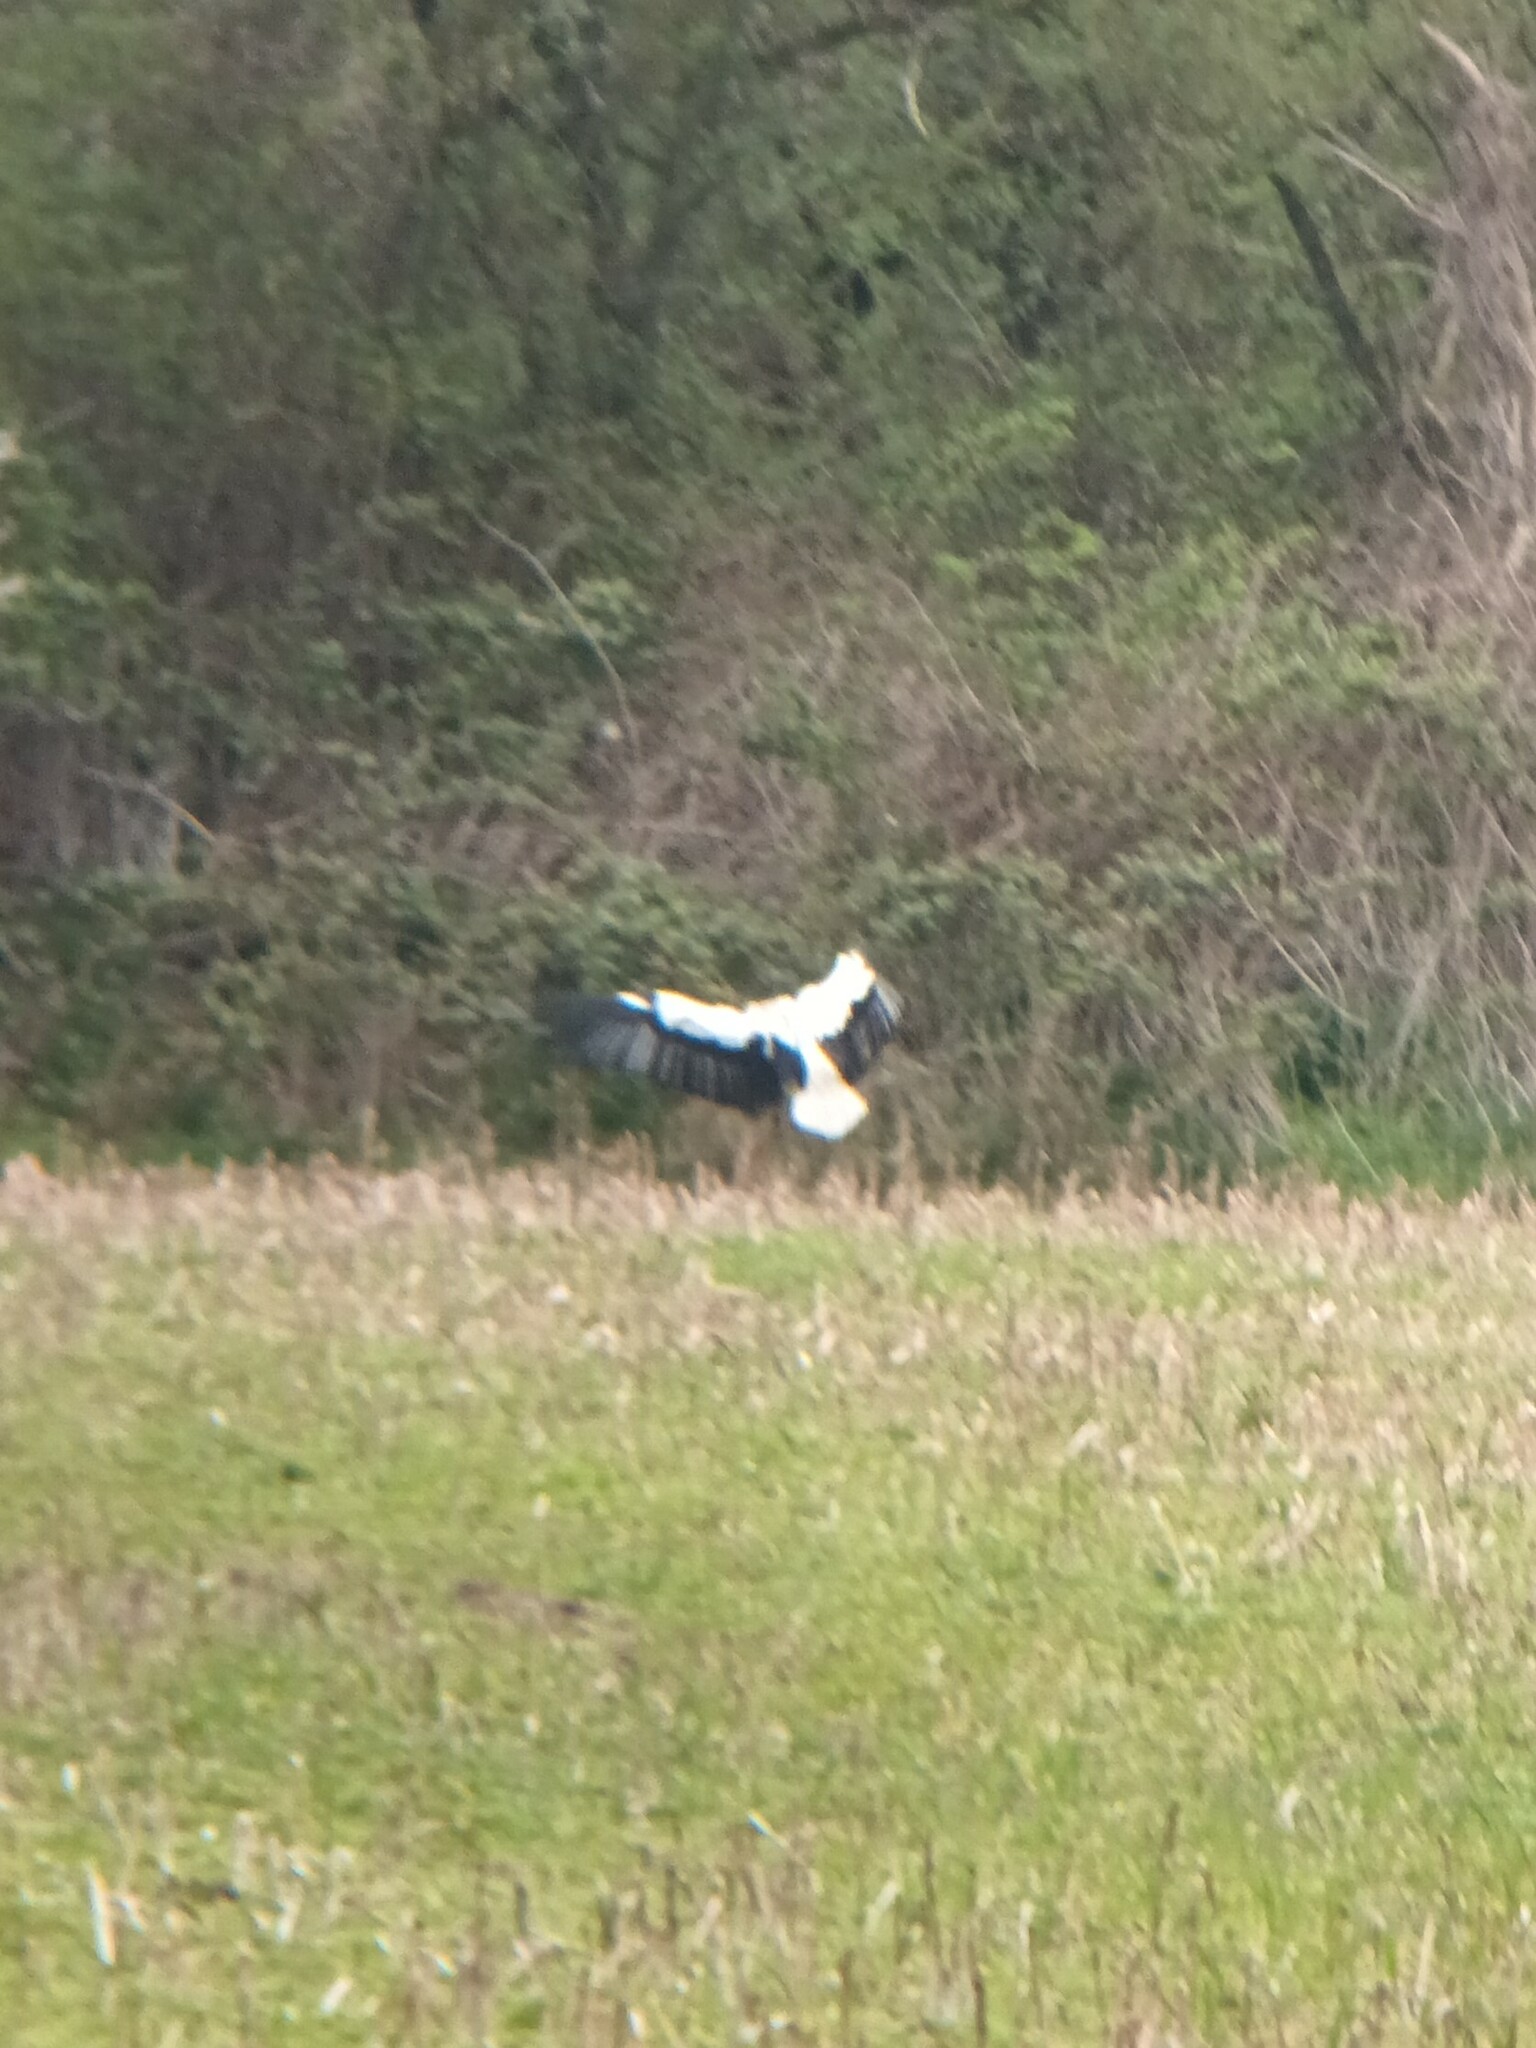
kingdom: Animalia
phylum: Chordata
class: Aves
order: Ciconiiformes
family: Ciconiidae
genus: Ciconia
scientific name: Ciconia ciconia
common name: White stork
